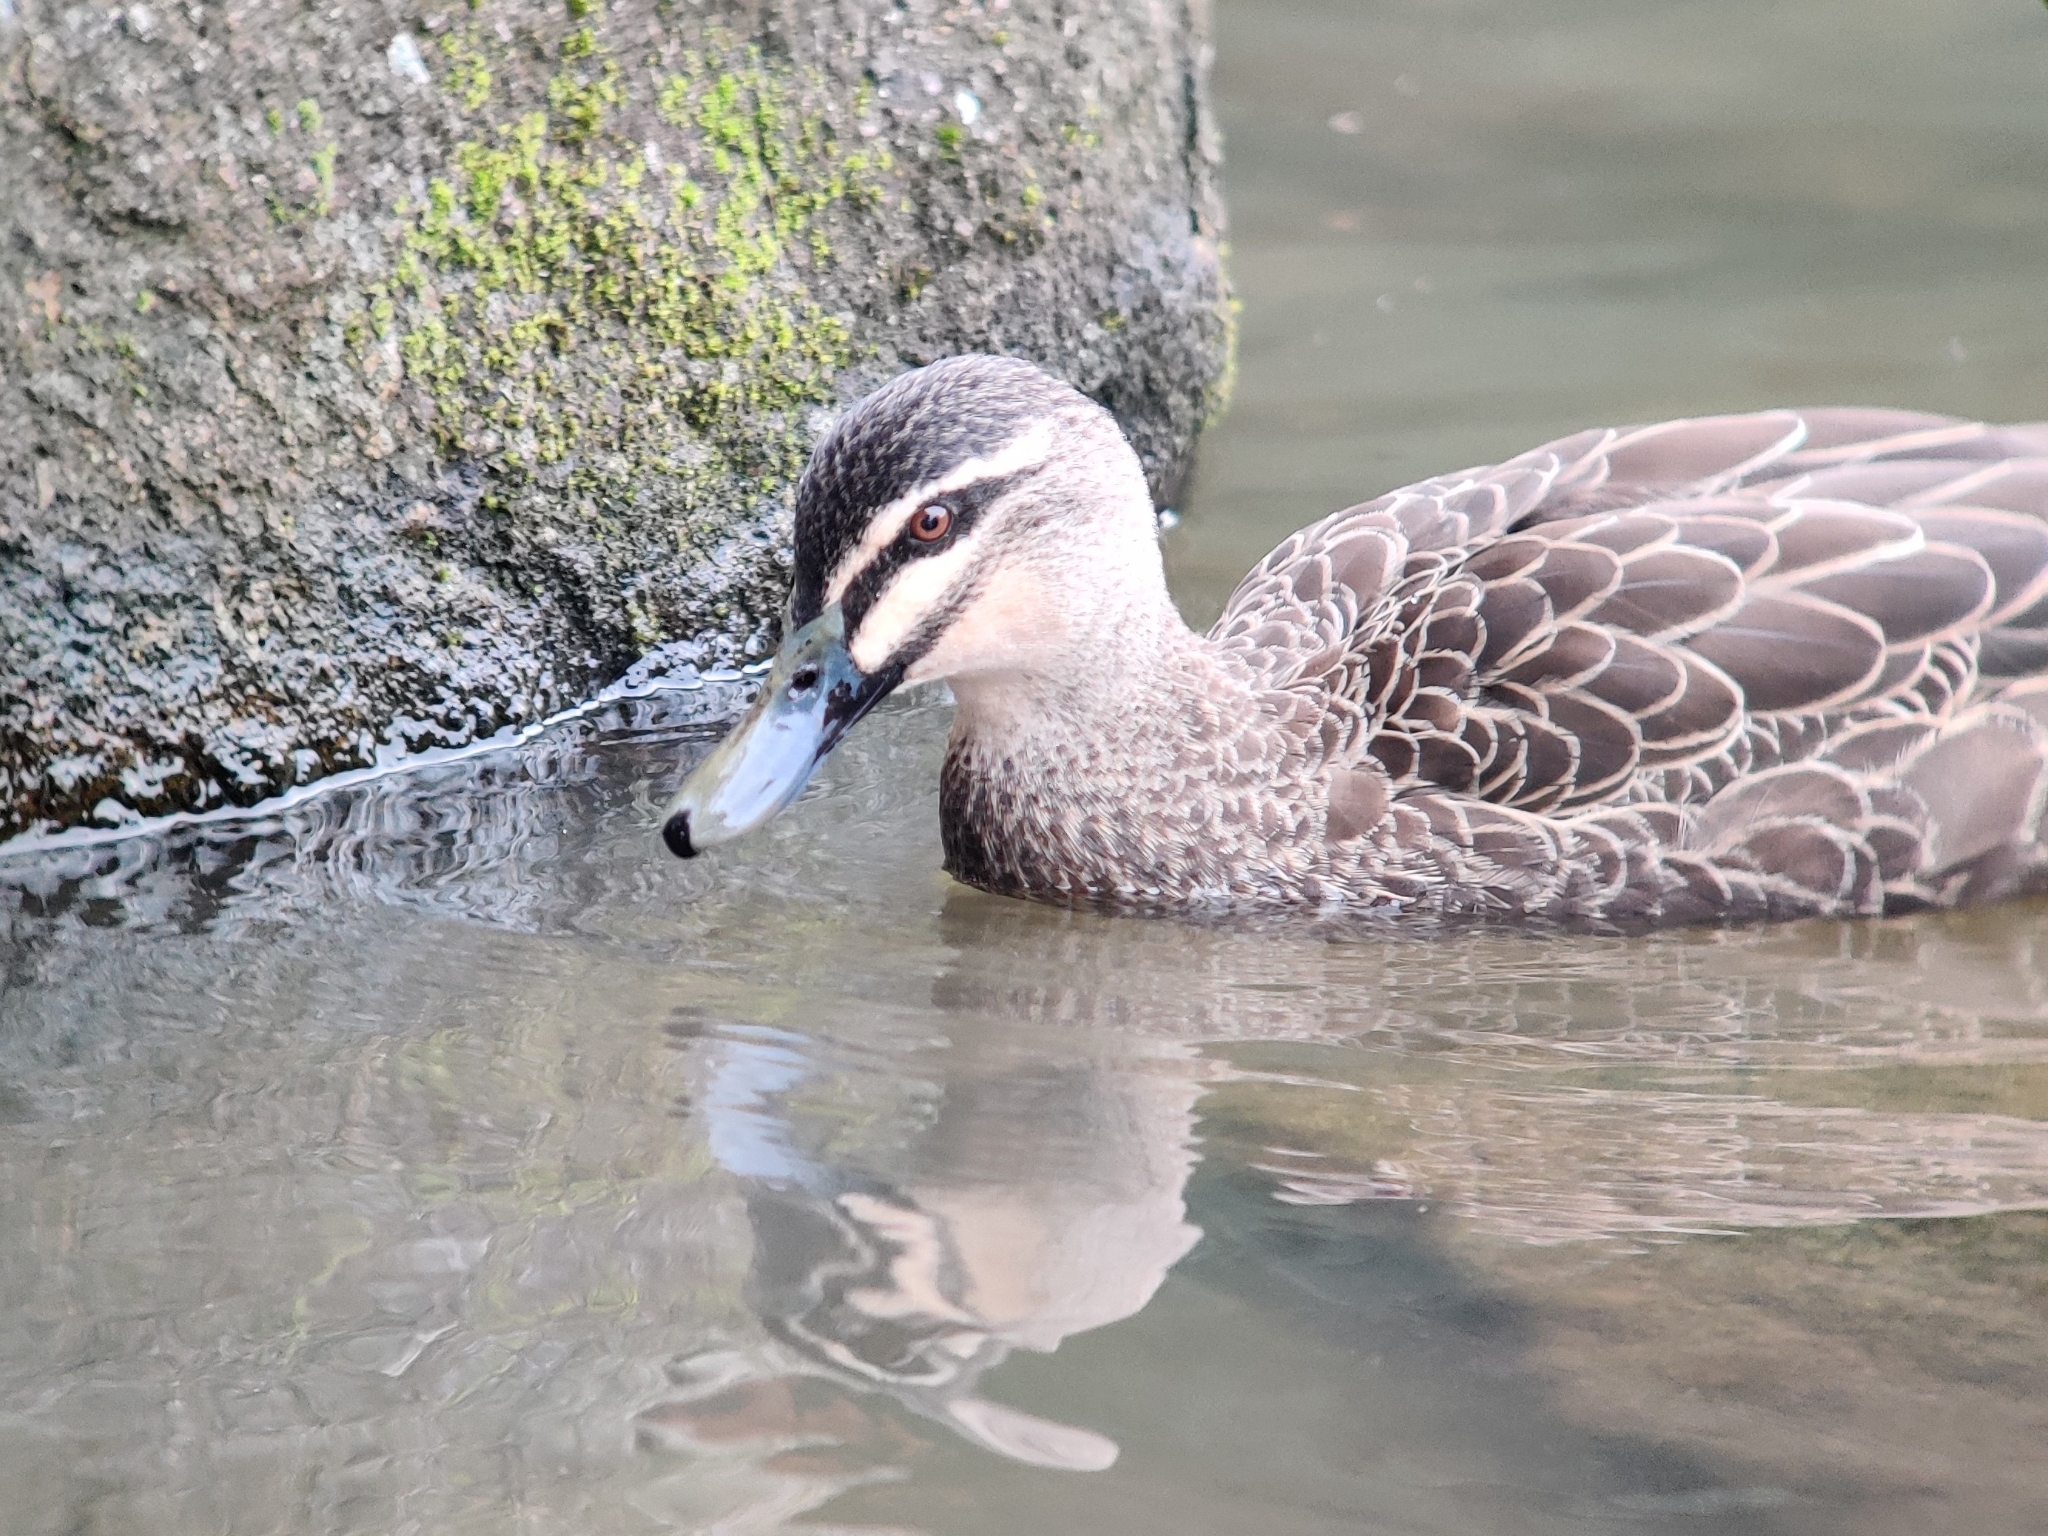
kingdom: Animalia
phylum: Chordata
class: Aves
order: Anseriformes
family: Anatidae
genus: Anas
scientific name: Anas
